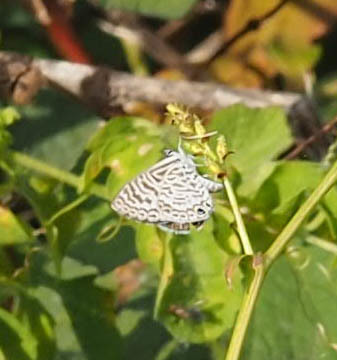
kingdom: Animalia
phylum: Arthropoda
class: Insecta
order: Lepidoptera
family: Lycaenidae
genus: Leptotes
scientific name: Leptotes cassius
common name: Cassius blue
